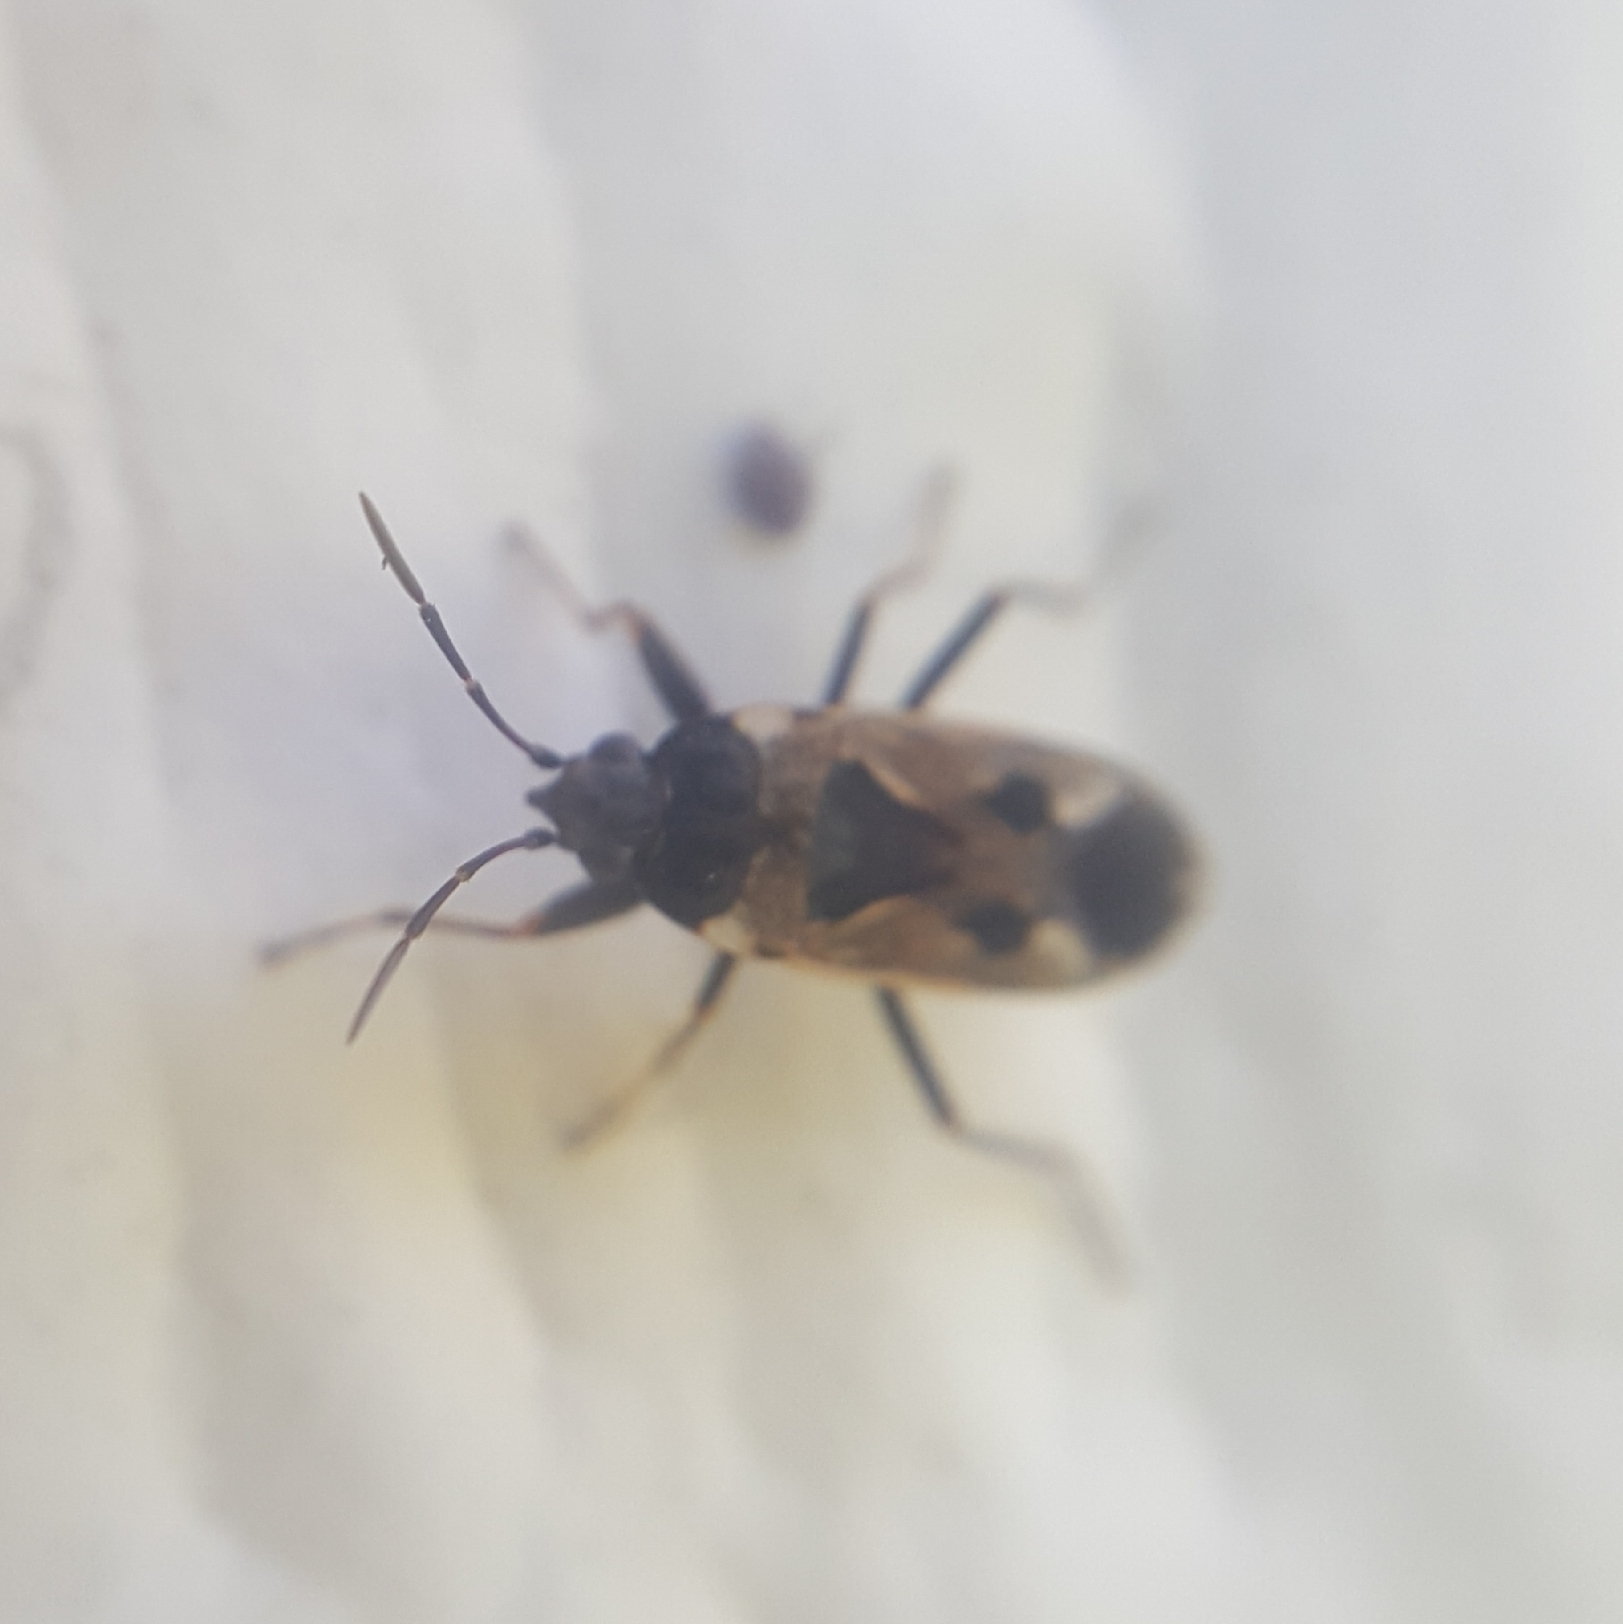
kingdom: Animalia
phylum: Arthropoda
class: Insecta
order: Hemiptera
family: Rhyparochromidae
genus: Rhyparochromus
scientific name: Rhyparochromus vulgaris
